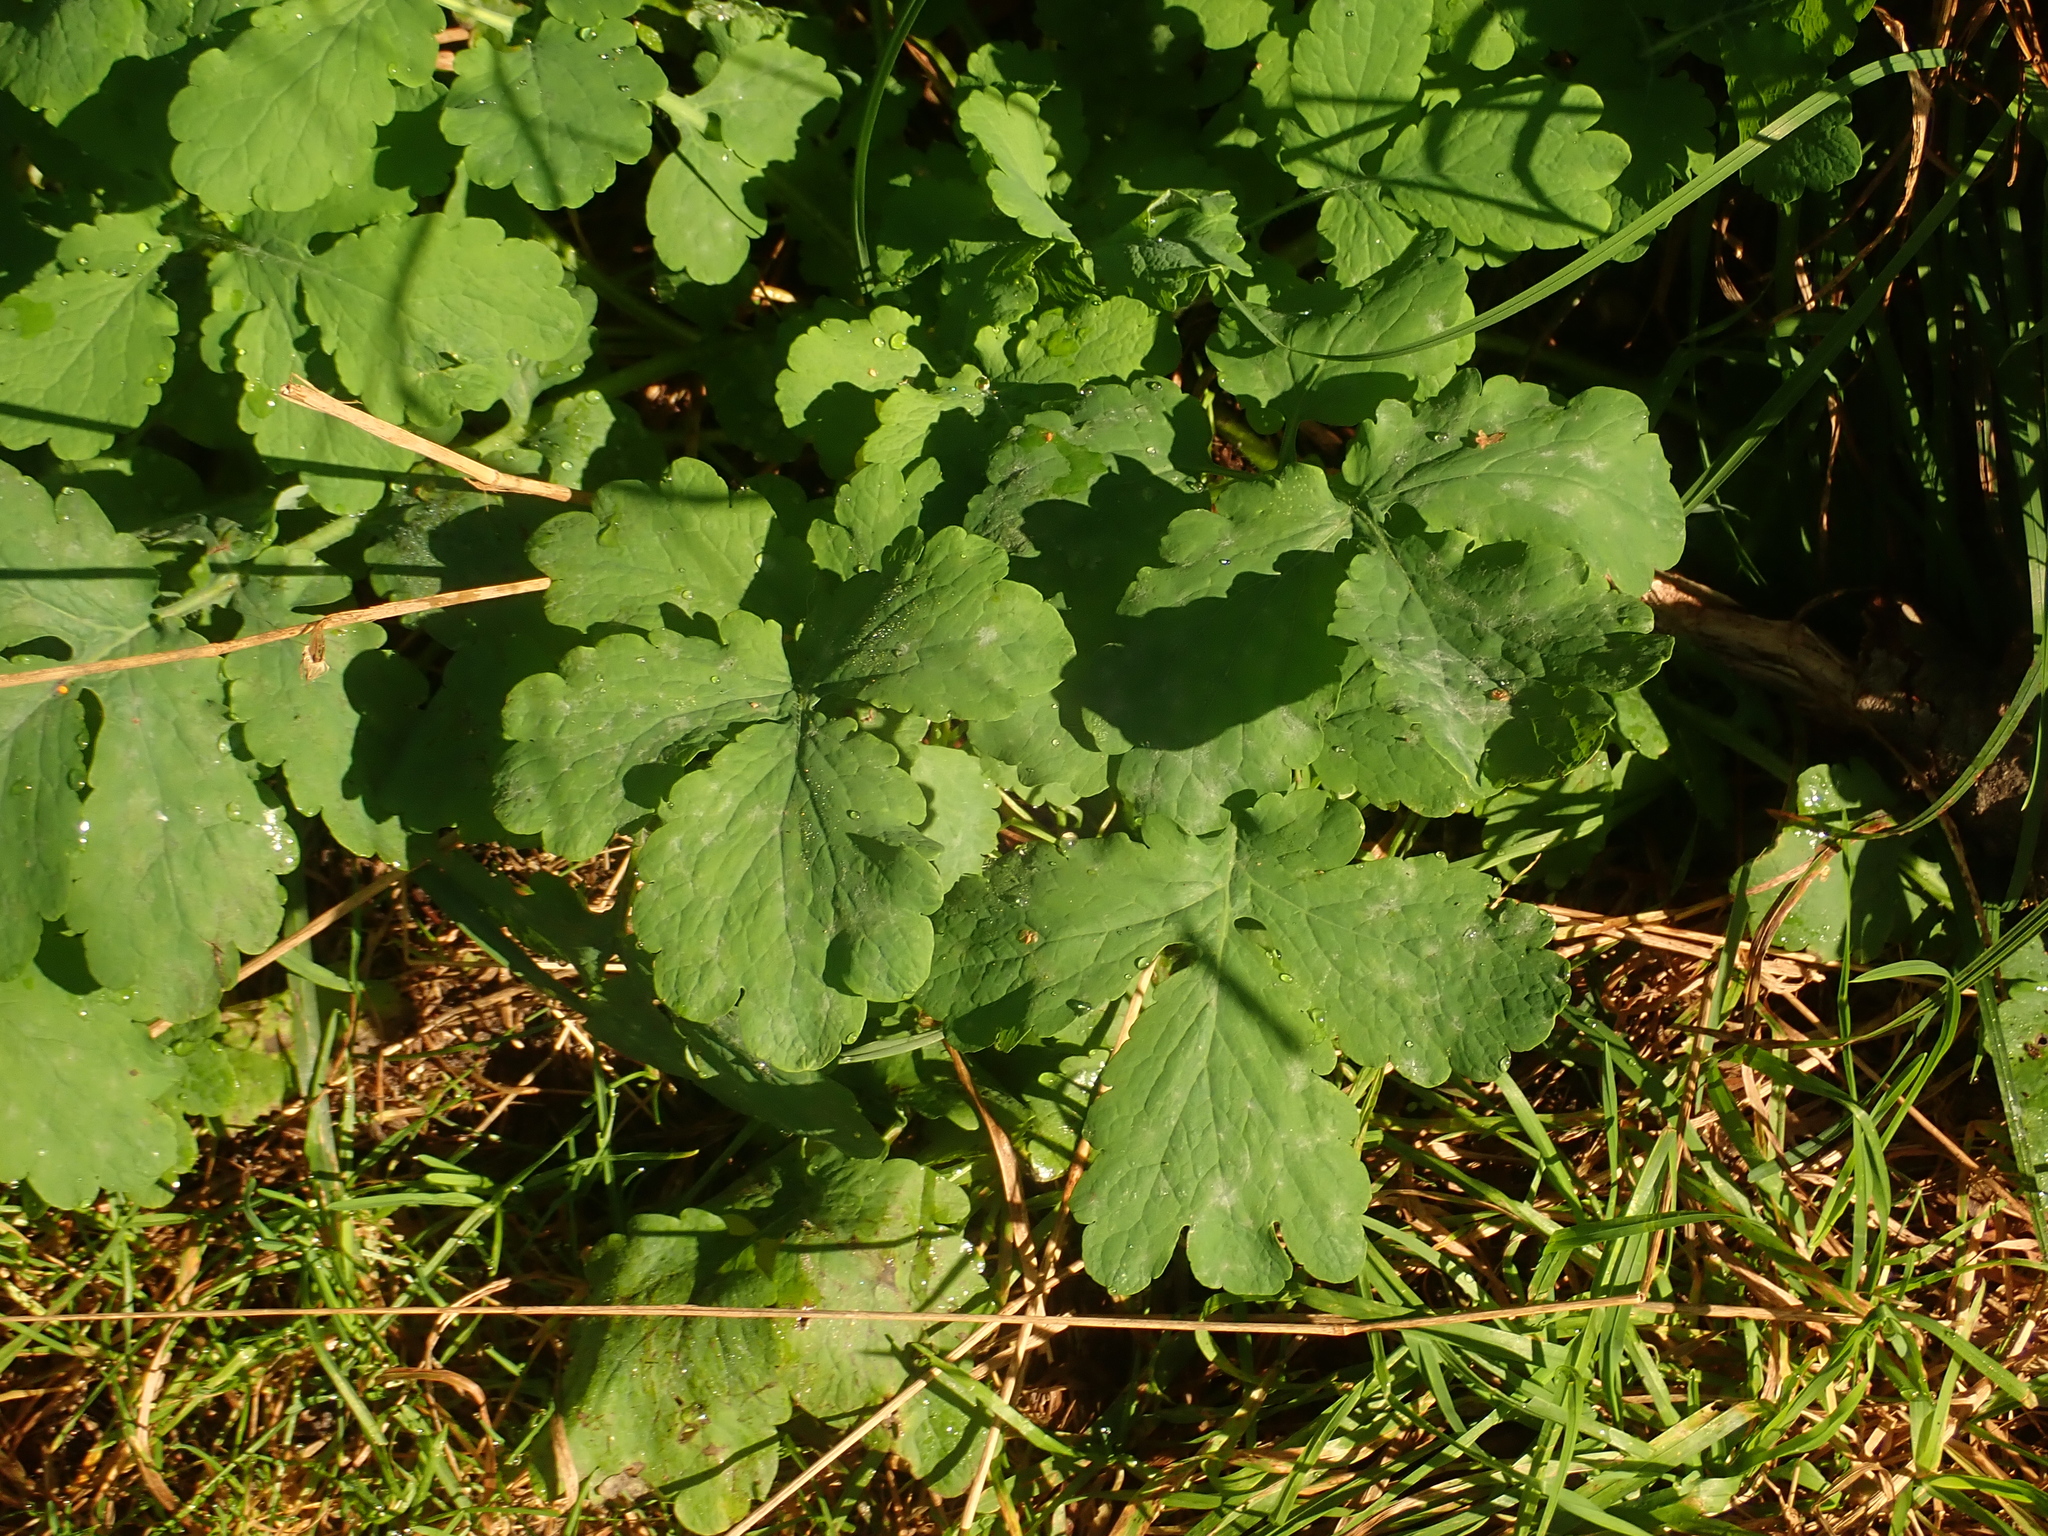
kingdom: Plantae
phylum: Tracheophyta
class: Magnoliopsida
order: Ranunculales
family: Papaveraceae
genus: Chelidonium
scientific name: Chelidonium majus
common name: Greater celandine
